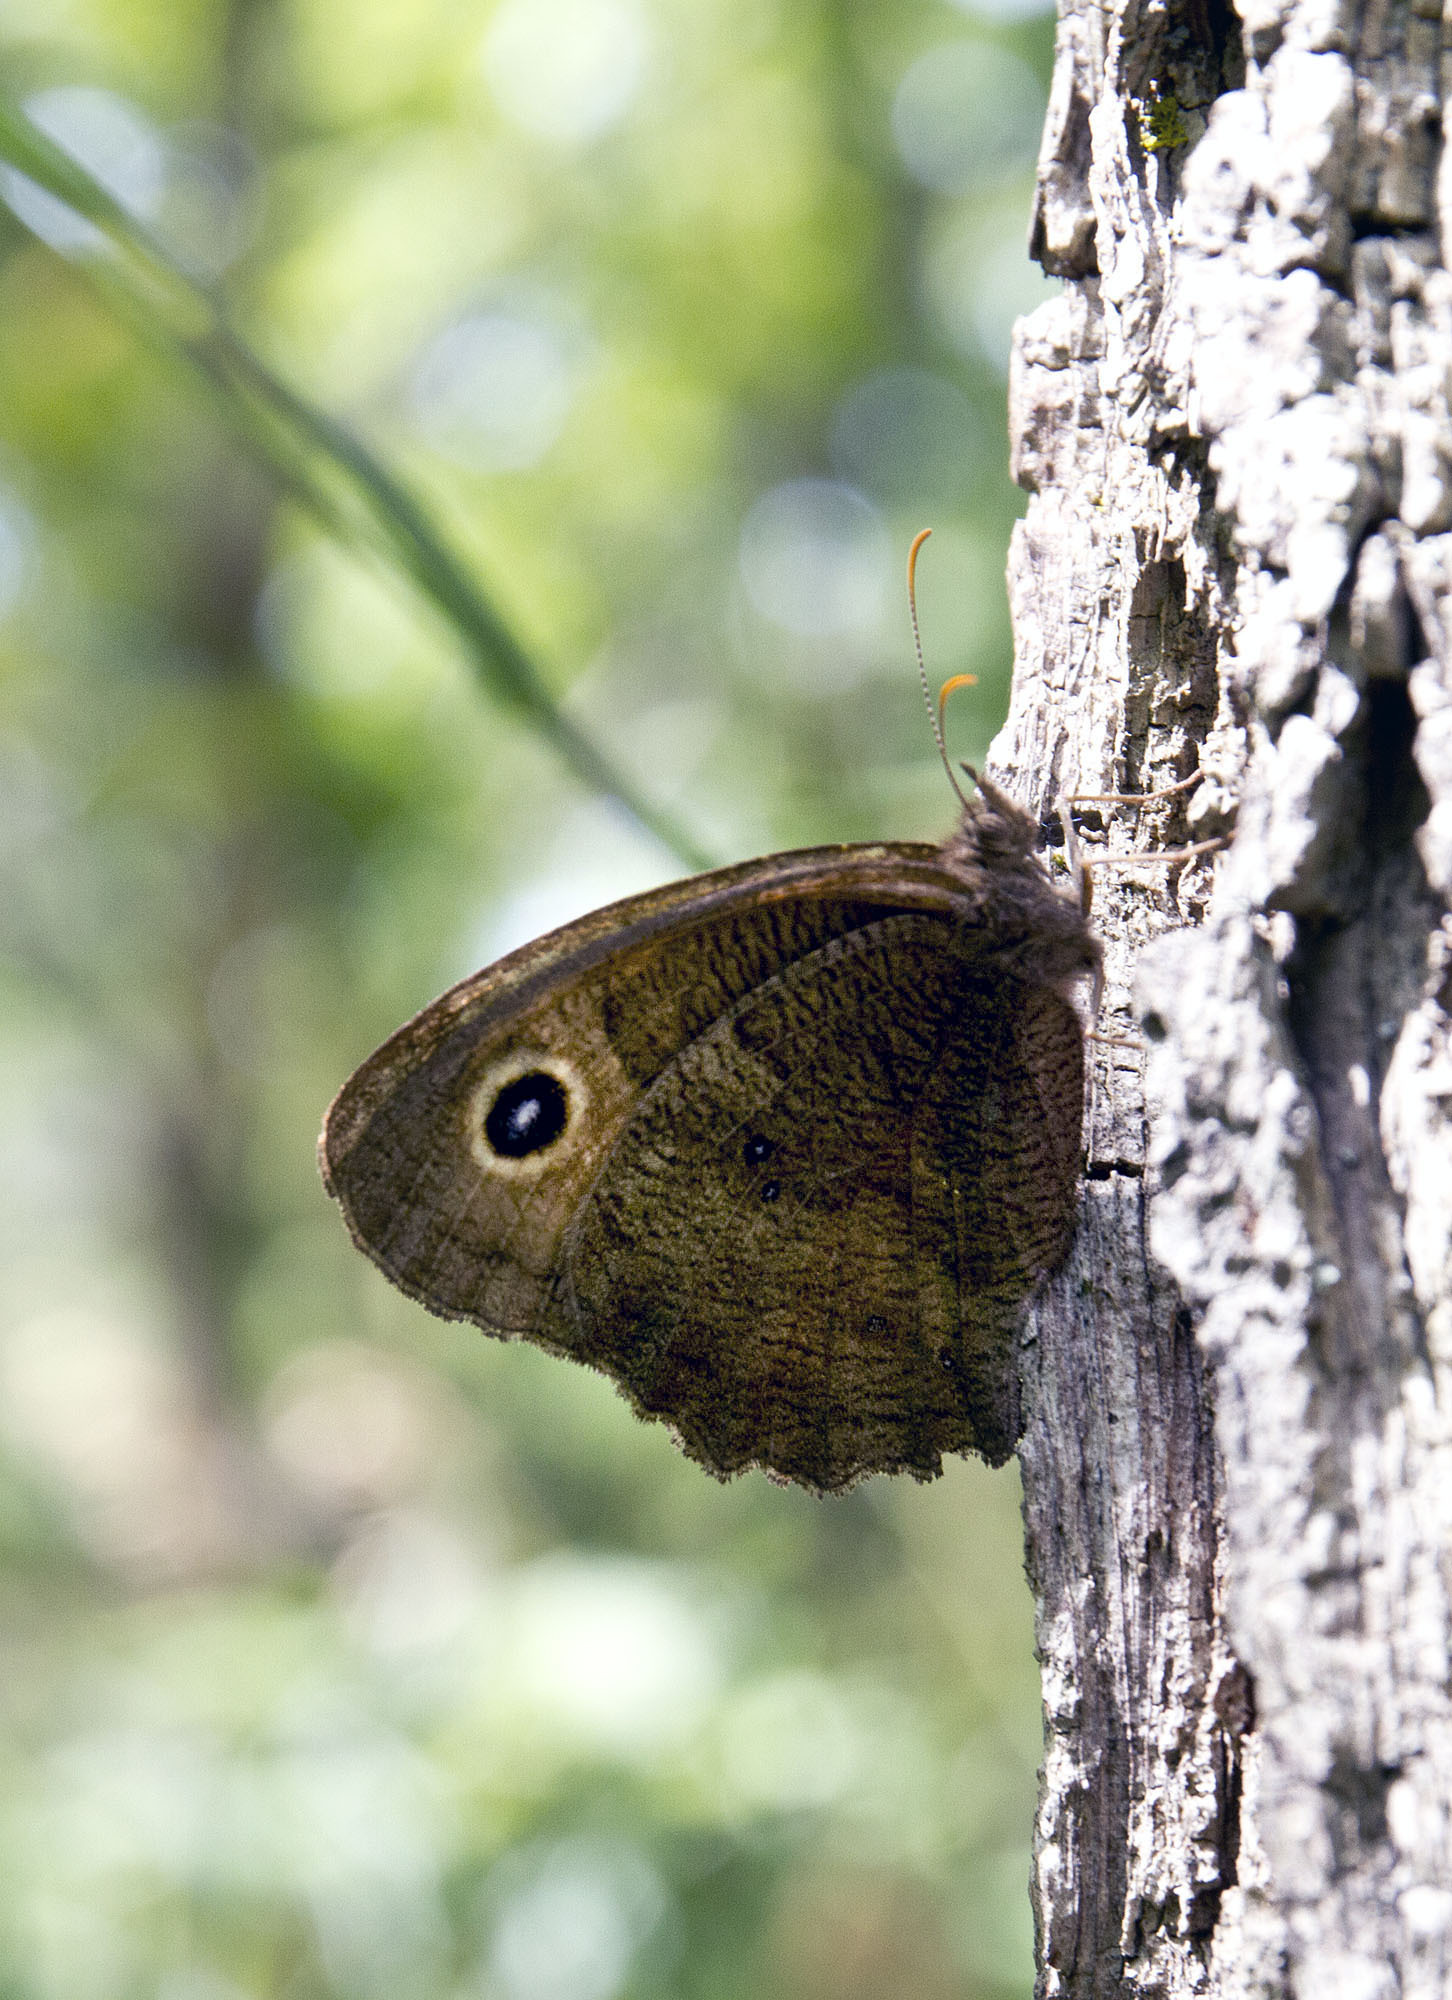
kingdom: Animalia
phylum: Arthropoda
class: Insecta
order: Lepidoptera
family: Nymphalidae
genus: Cercyonis
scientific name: Cercyonis pegala
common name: Common wood-nymph
